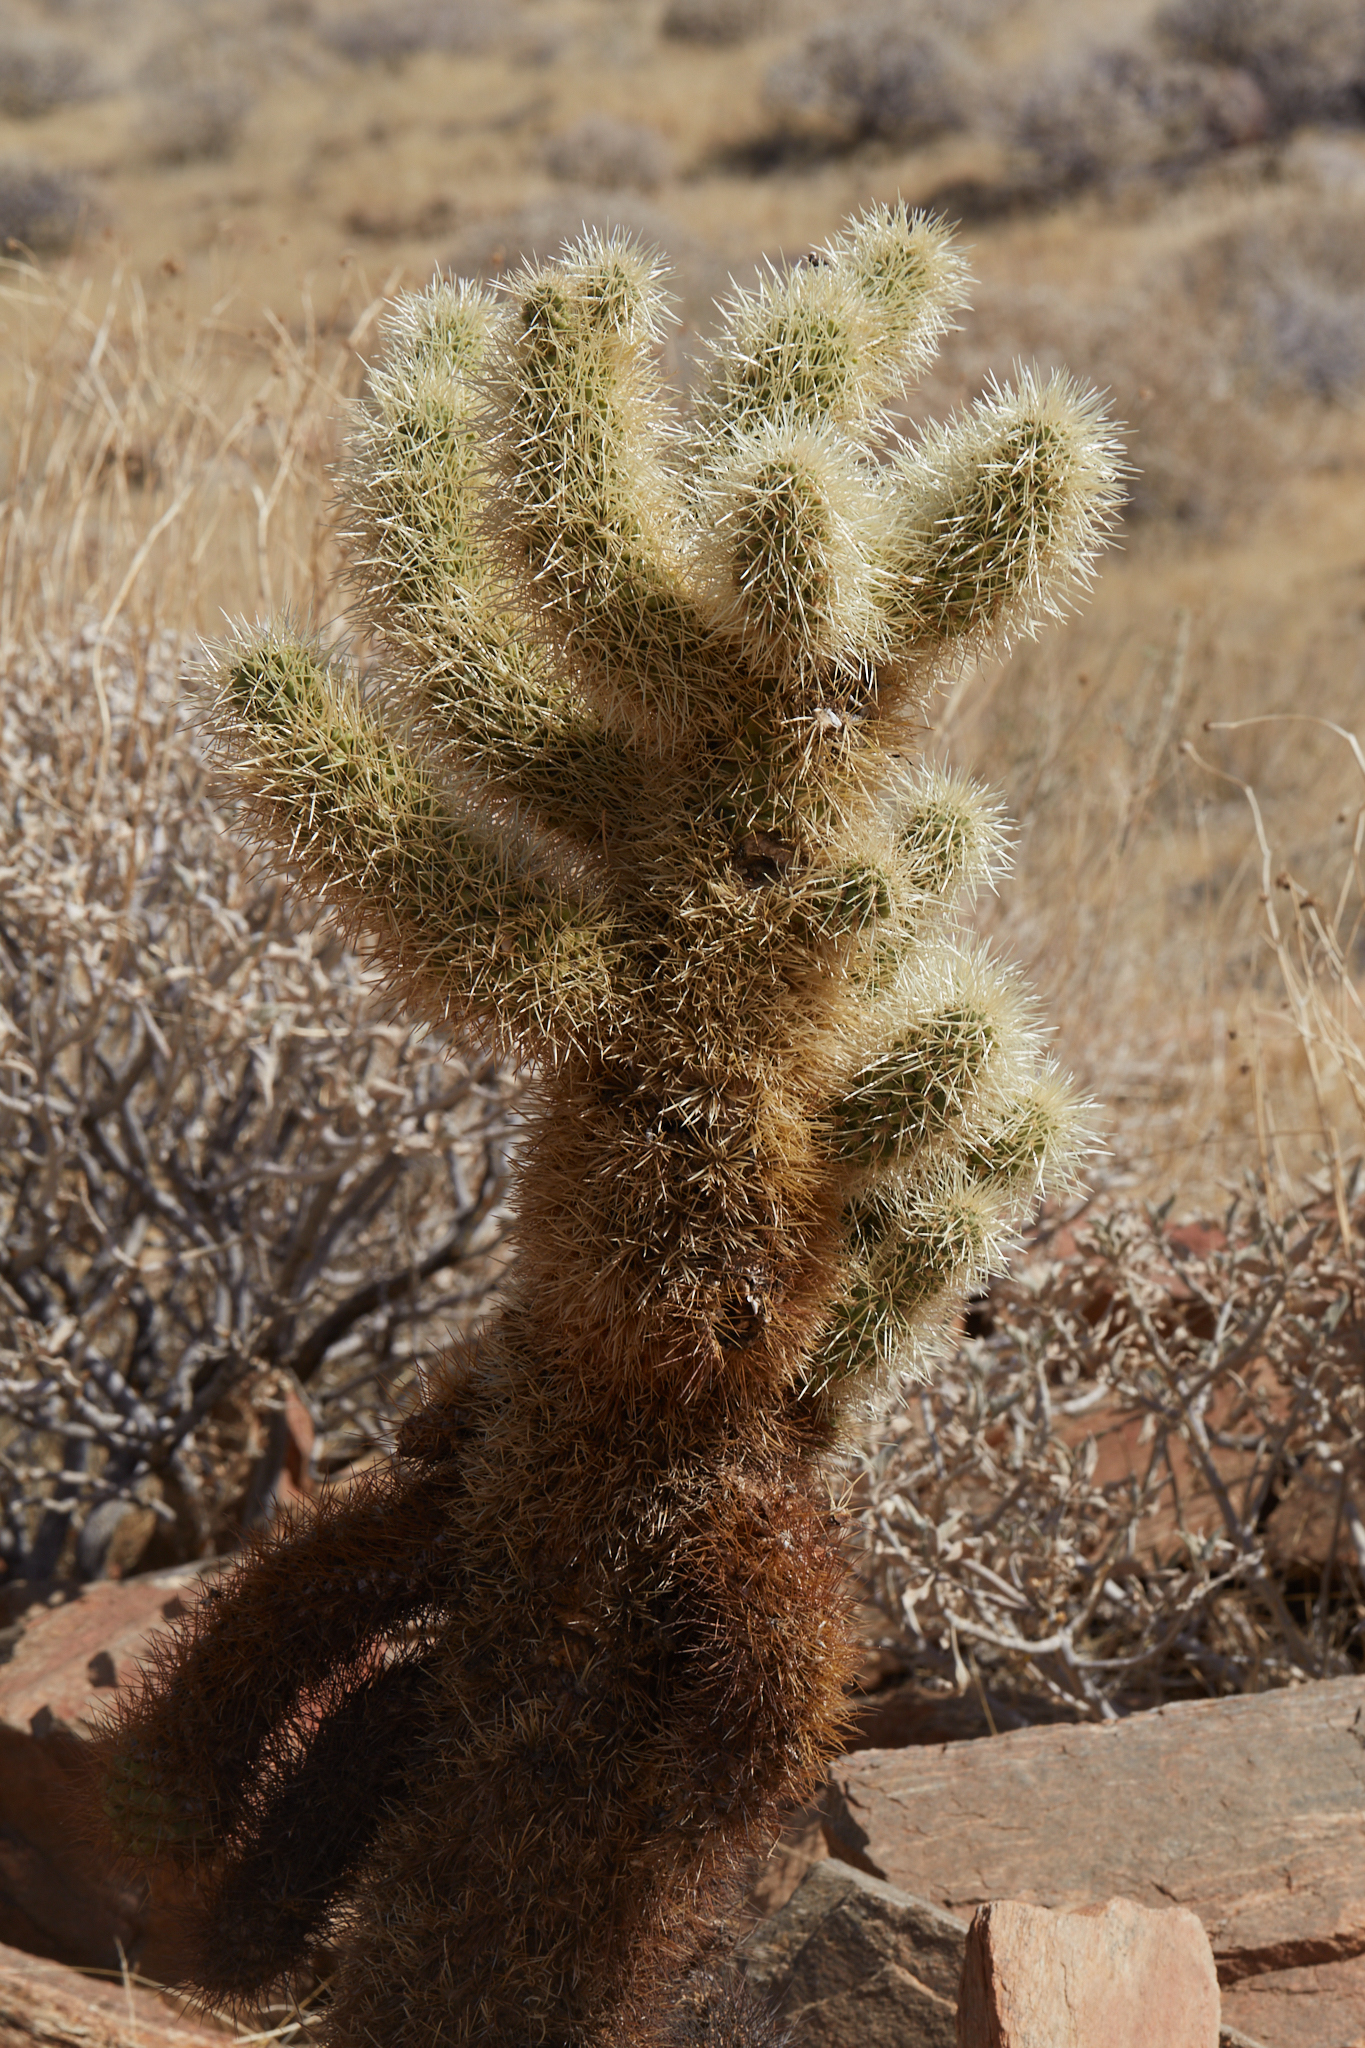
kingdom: Plantae
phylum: Tracheophyta
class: Magnoliopsida
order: Caryophyllales
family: Cactaceae
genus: Cylindropuntia
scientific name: Cylindropuntia fosbergii
